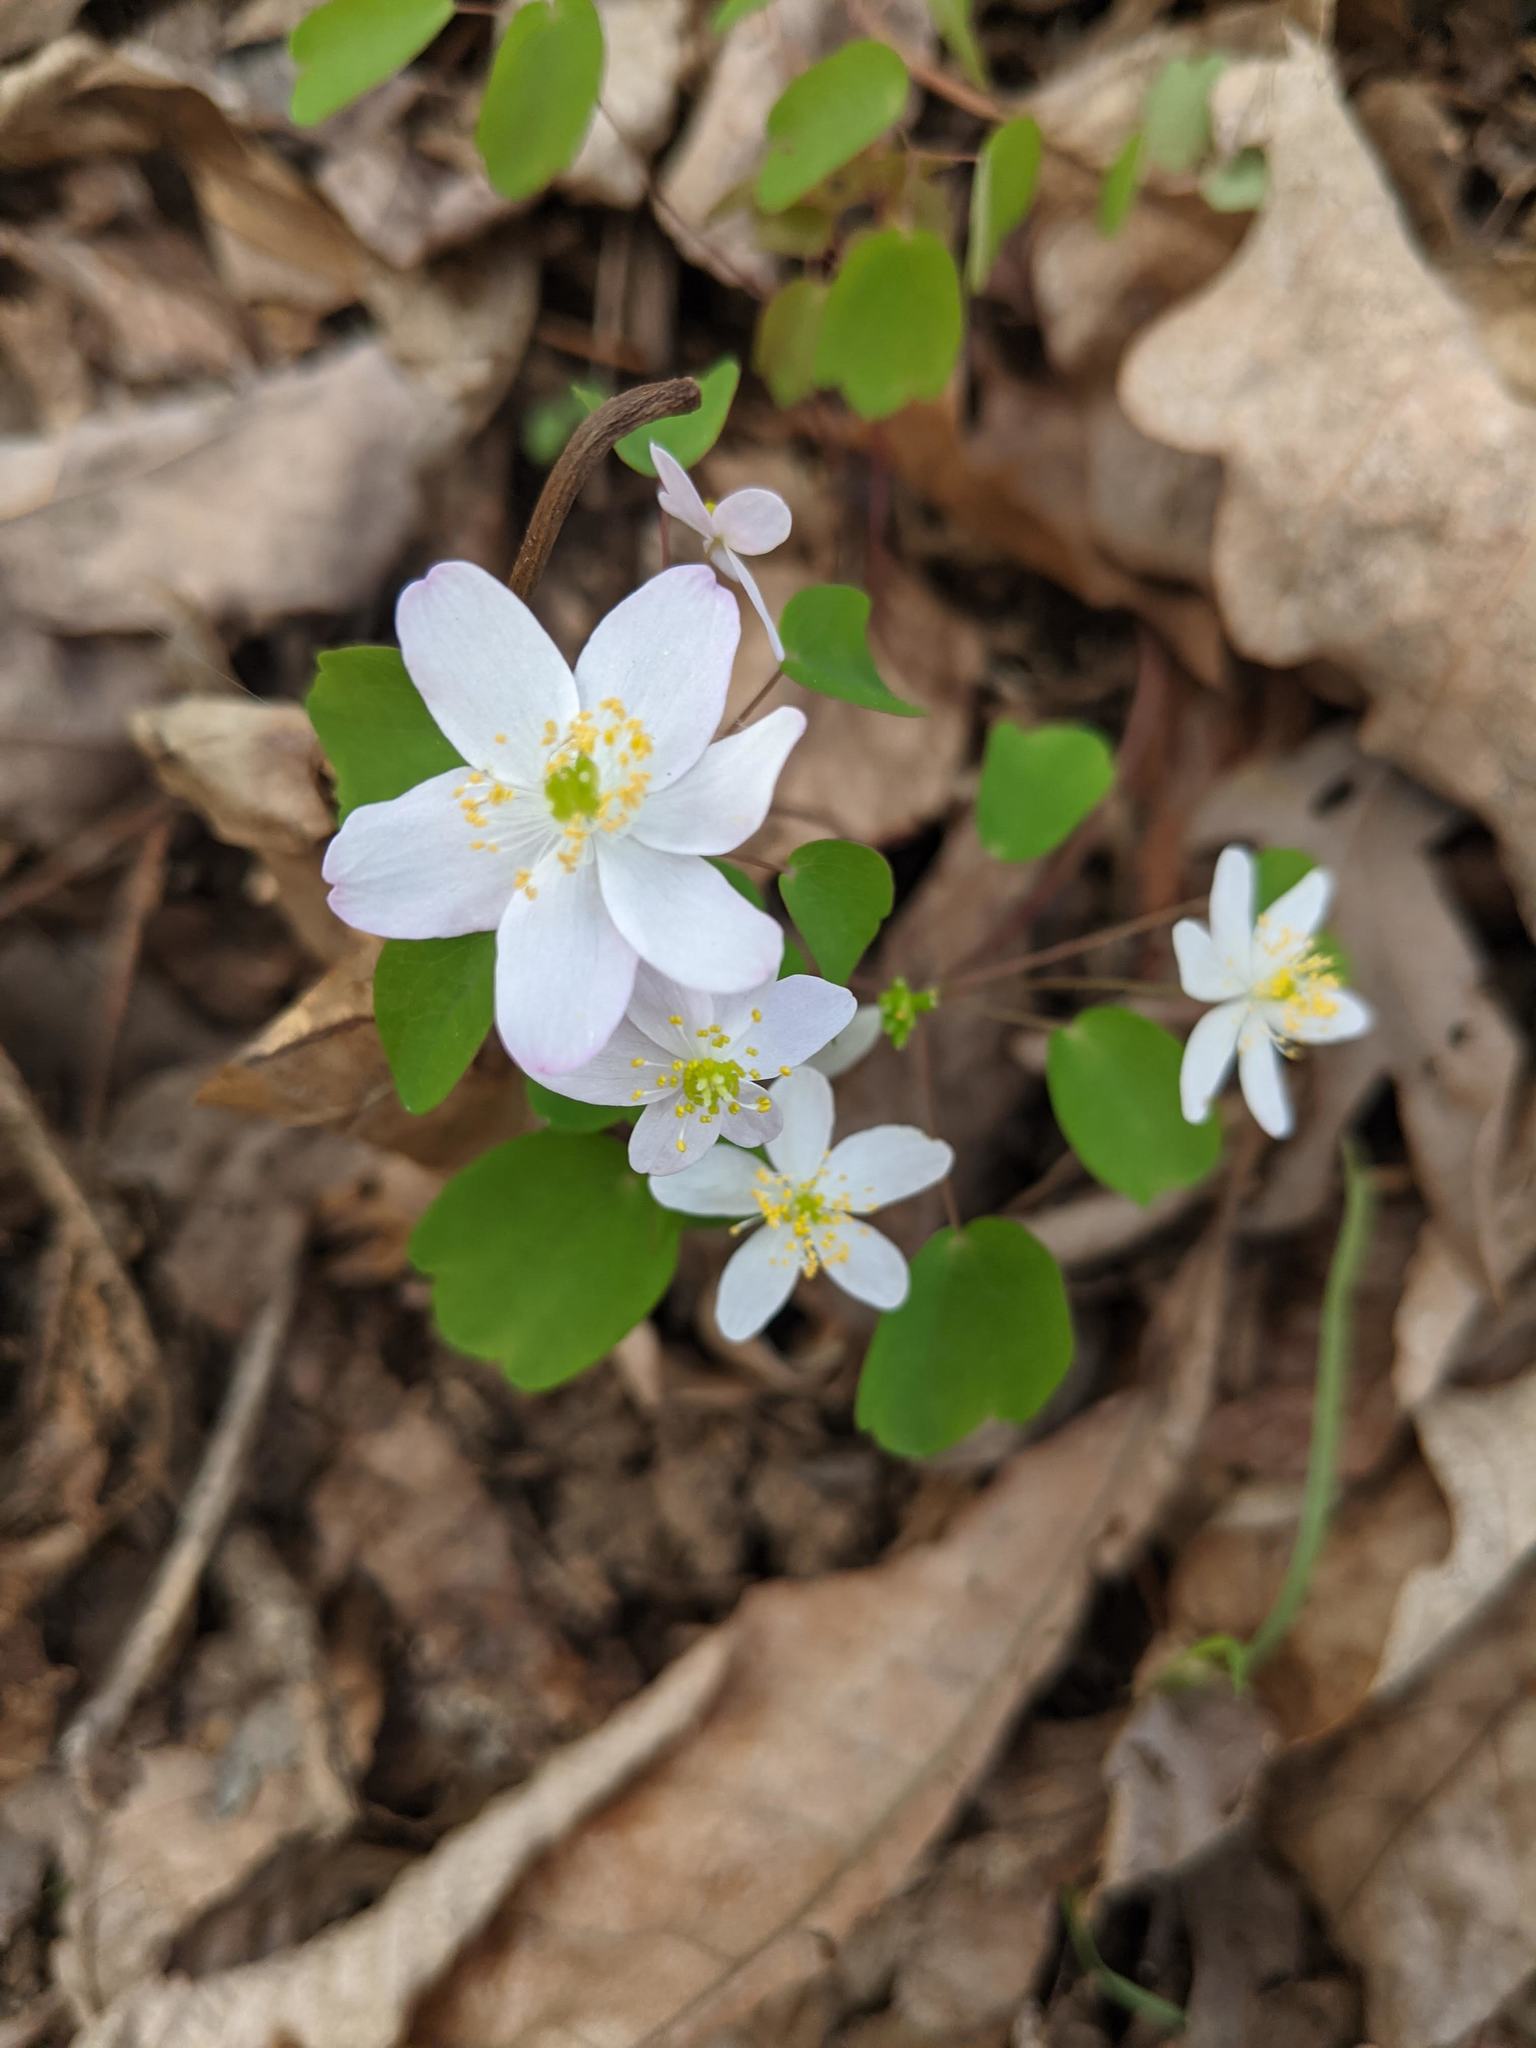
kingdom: Plantae
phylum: Tracheophyta
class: Magnoliopsida
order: Ranunculales
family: Ranunculaceae
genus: Thalictrum
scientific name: Thalictrum thalictroides
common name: Rue-anemone
